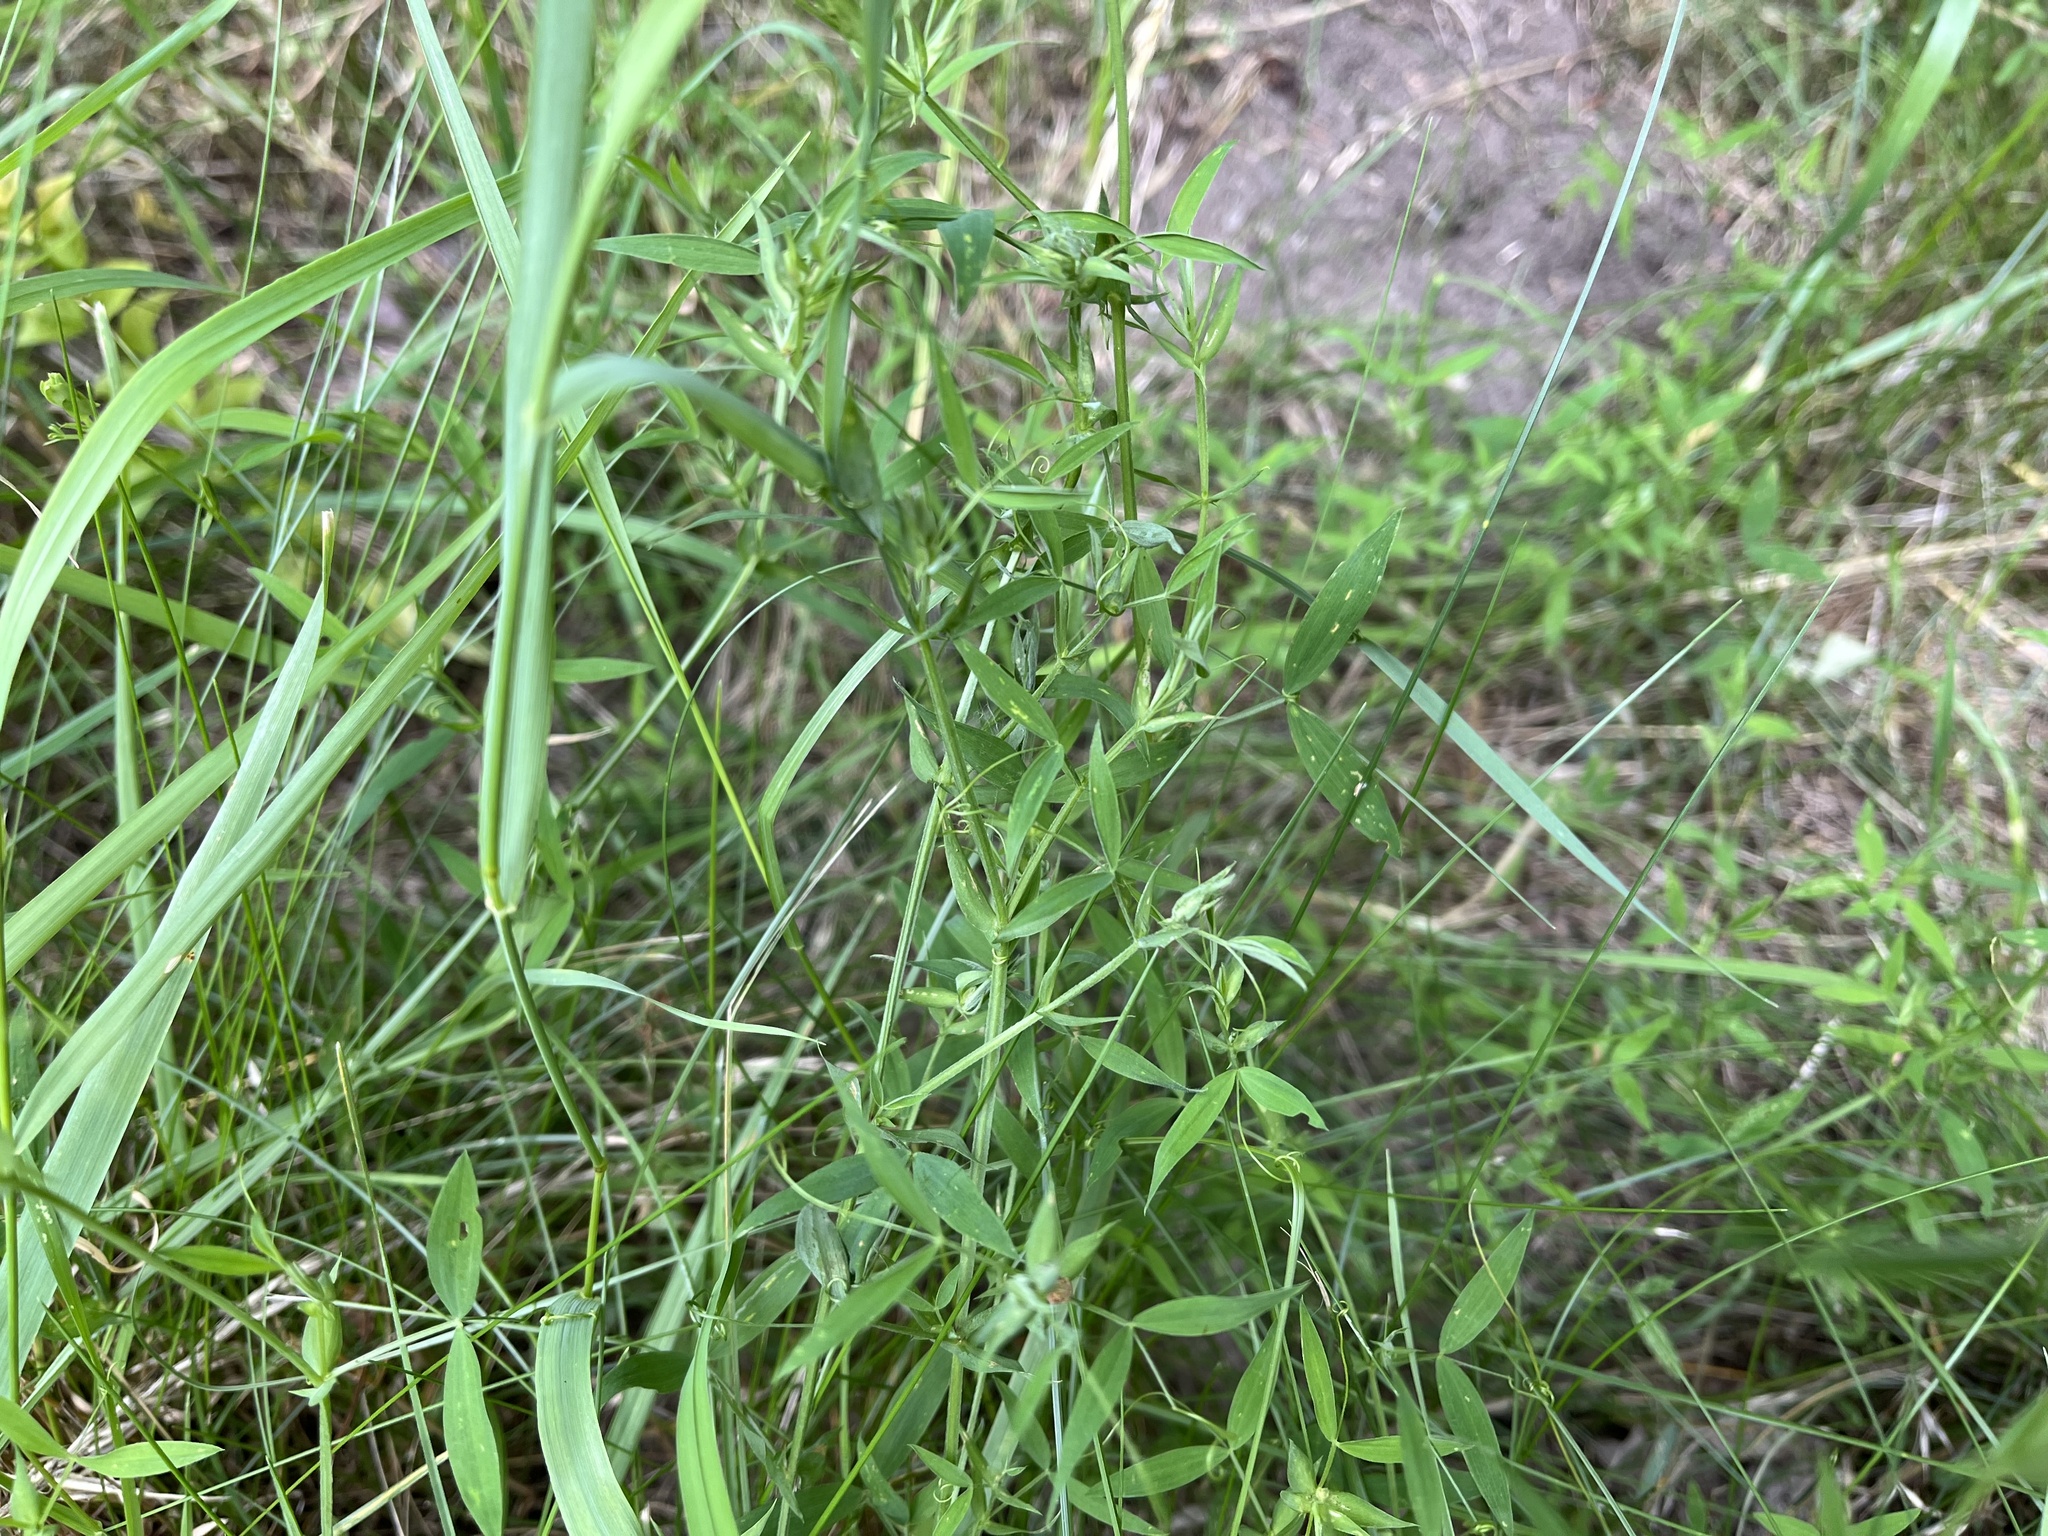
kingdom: Plantae
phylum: Tracheophyta
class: Magnoliopsida
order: Fabales
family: Fabaceae
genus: Lathyrus
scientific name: Lathyrus pratensis
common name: Meadow vetchling
